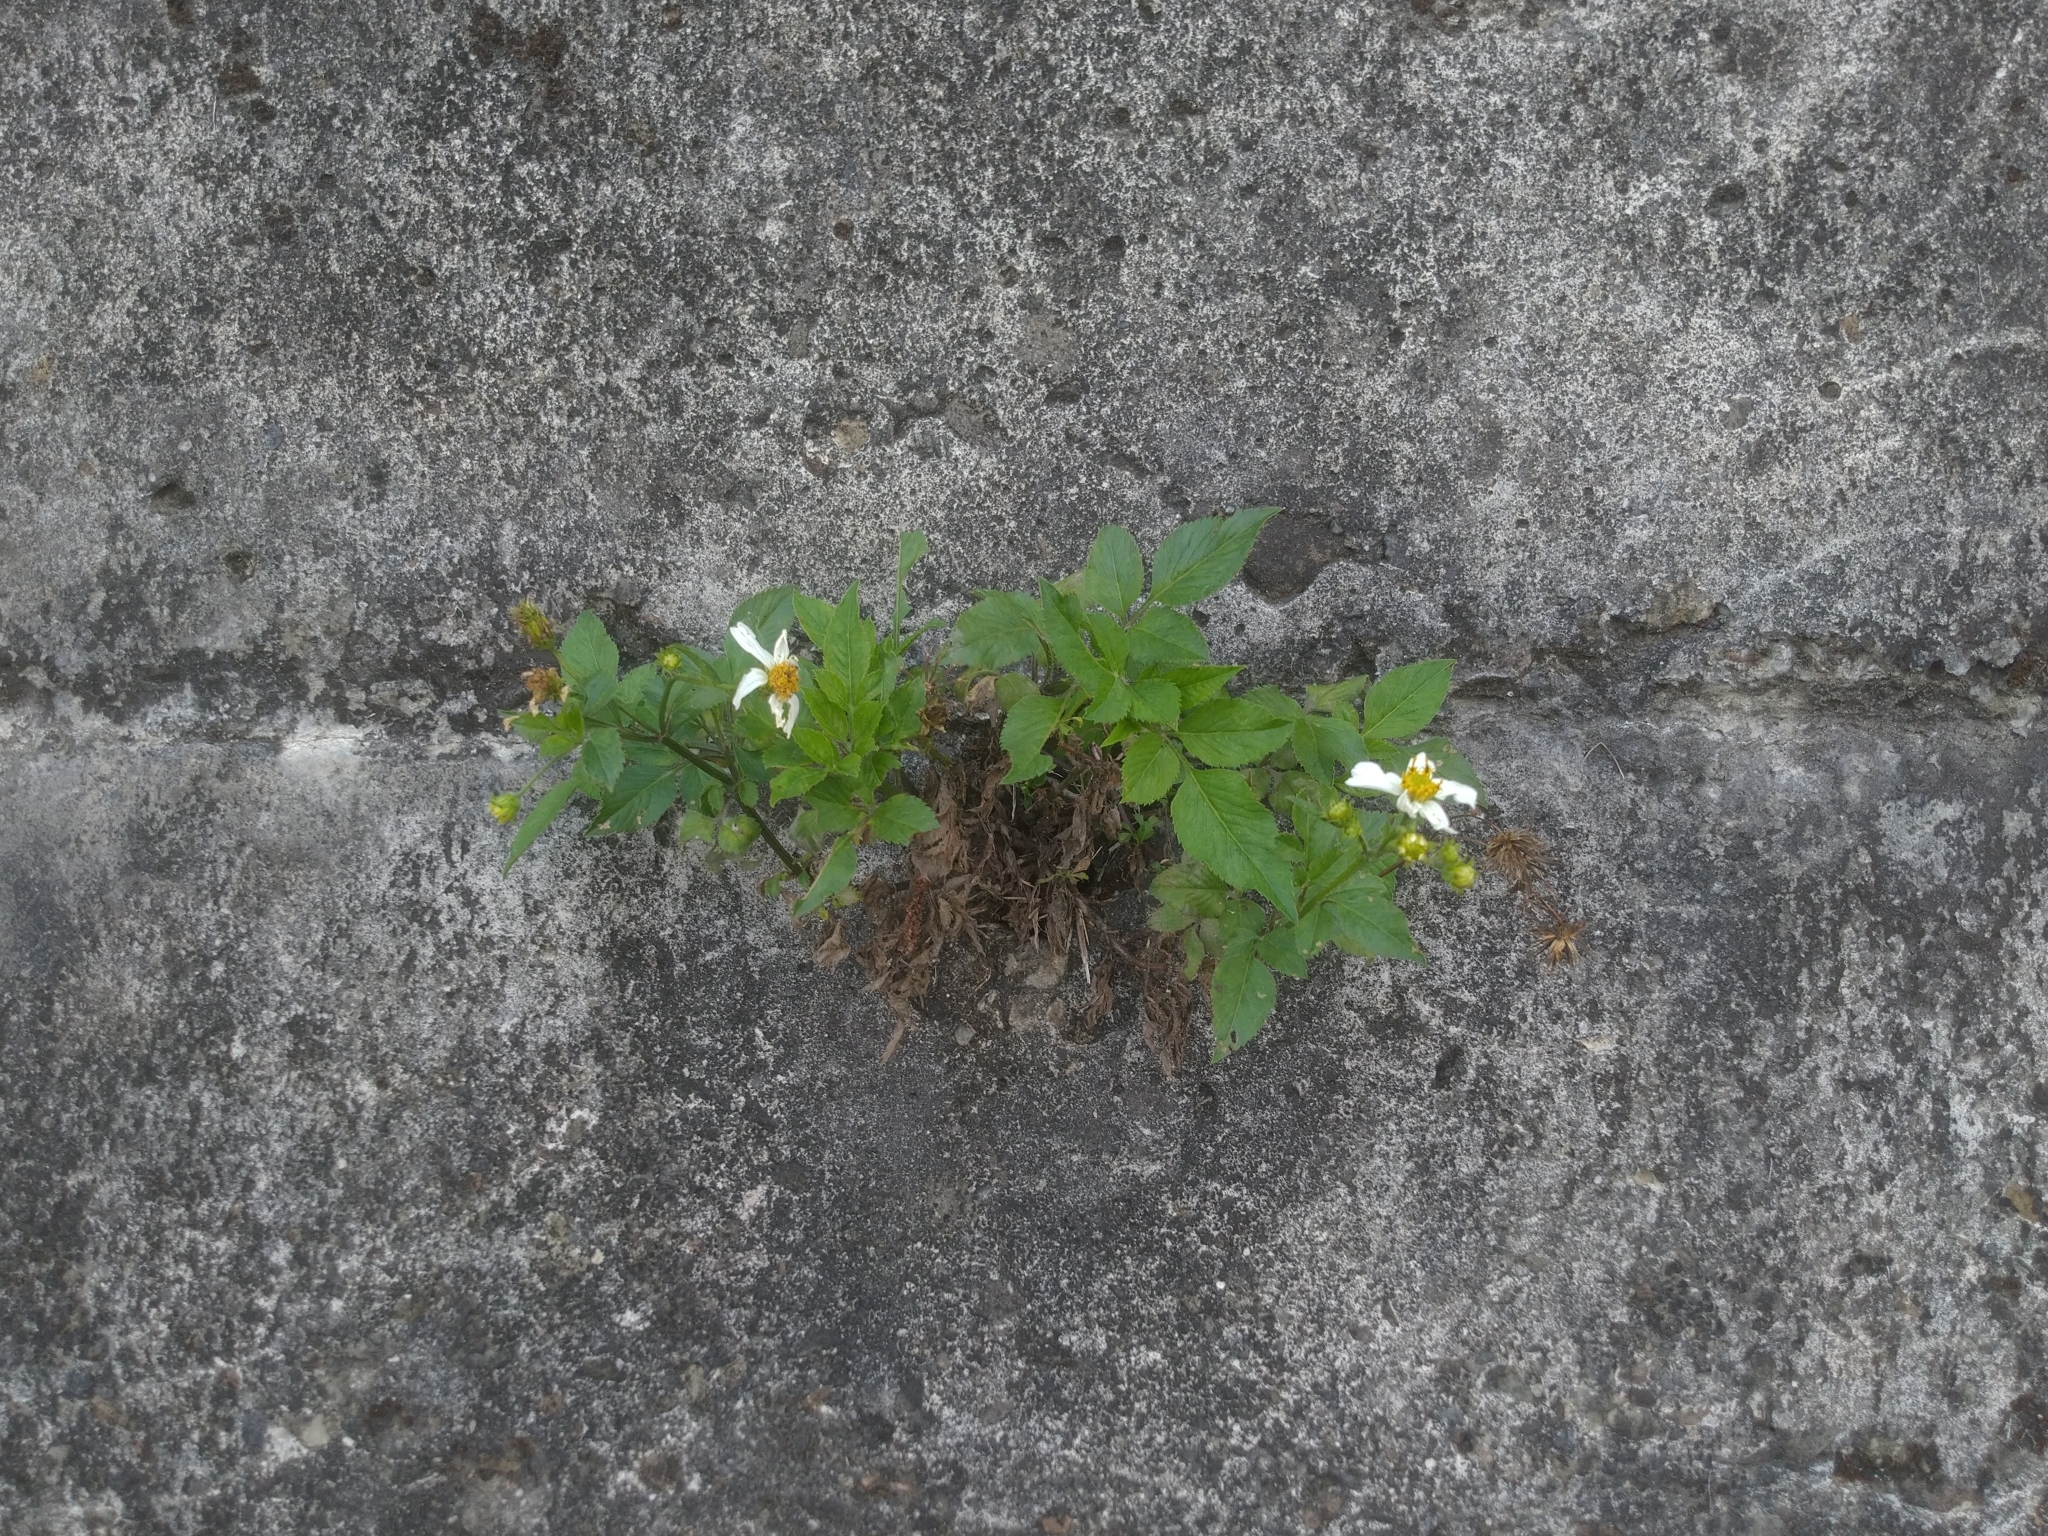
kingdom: Plantae
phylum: Tracheophyta
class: Magnoliopsida
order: Asterales
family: Asteraceae
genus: Bidens
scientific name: Bidens alba
